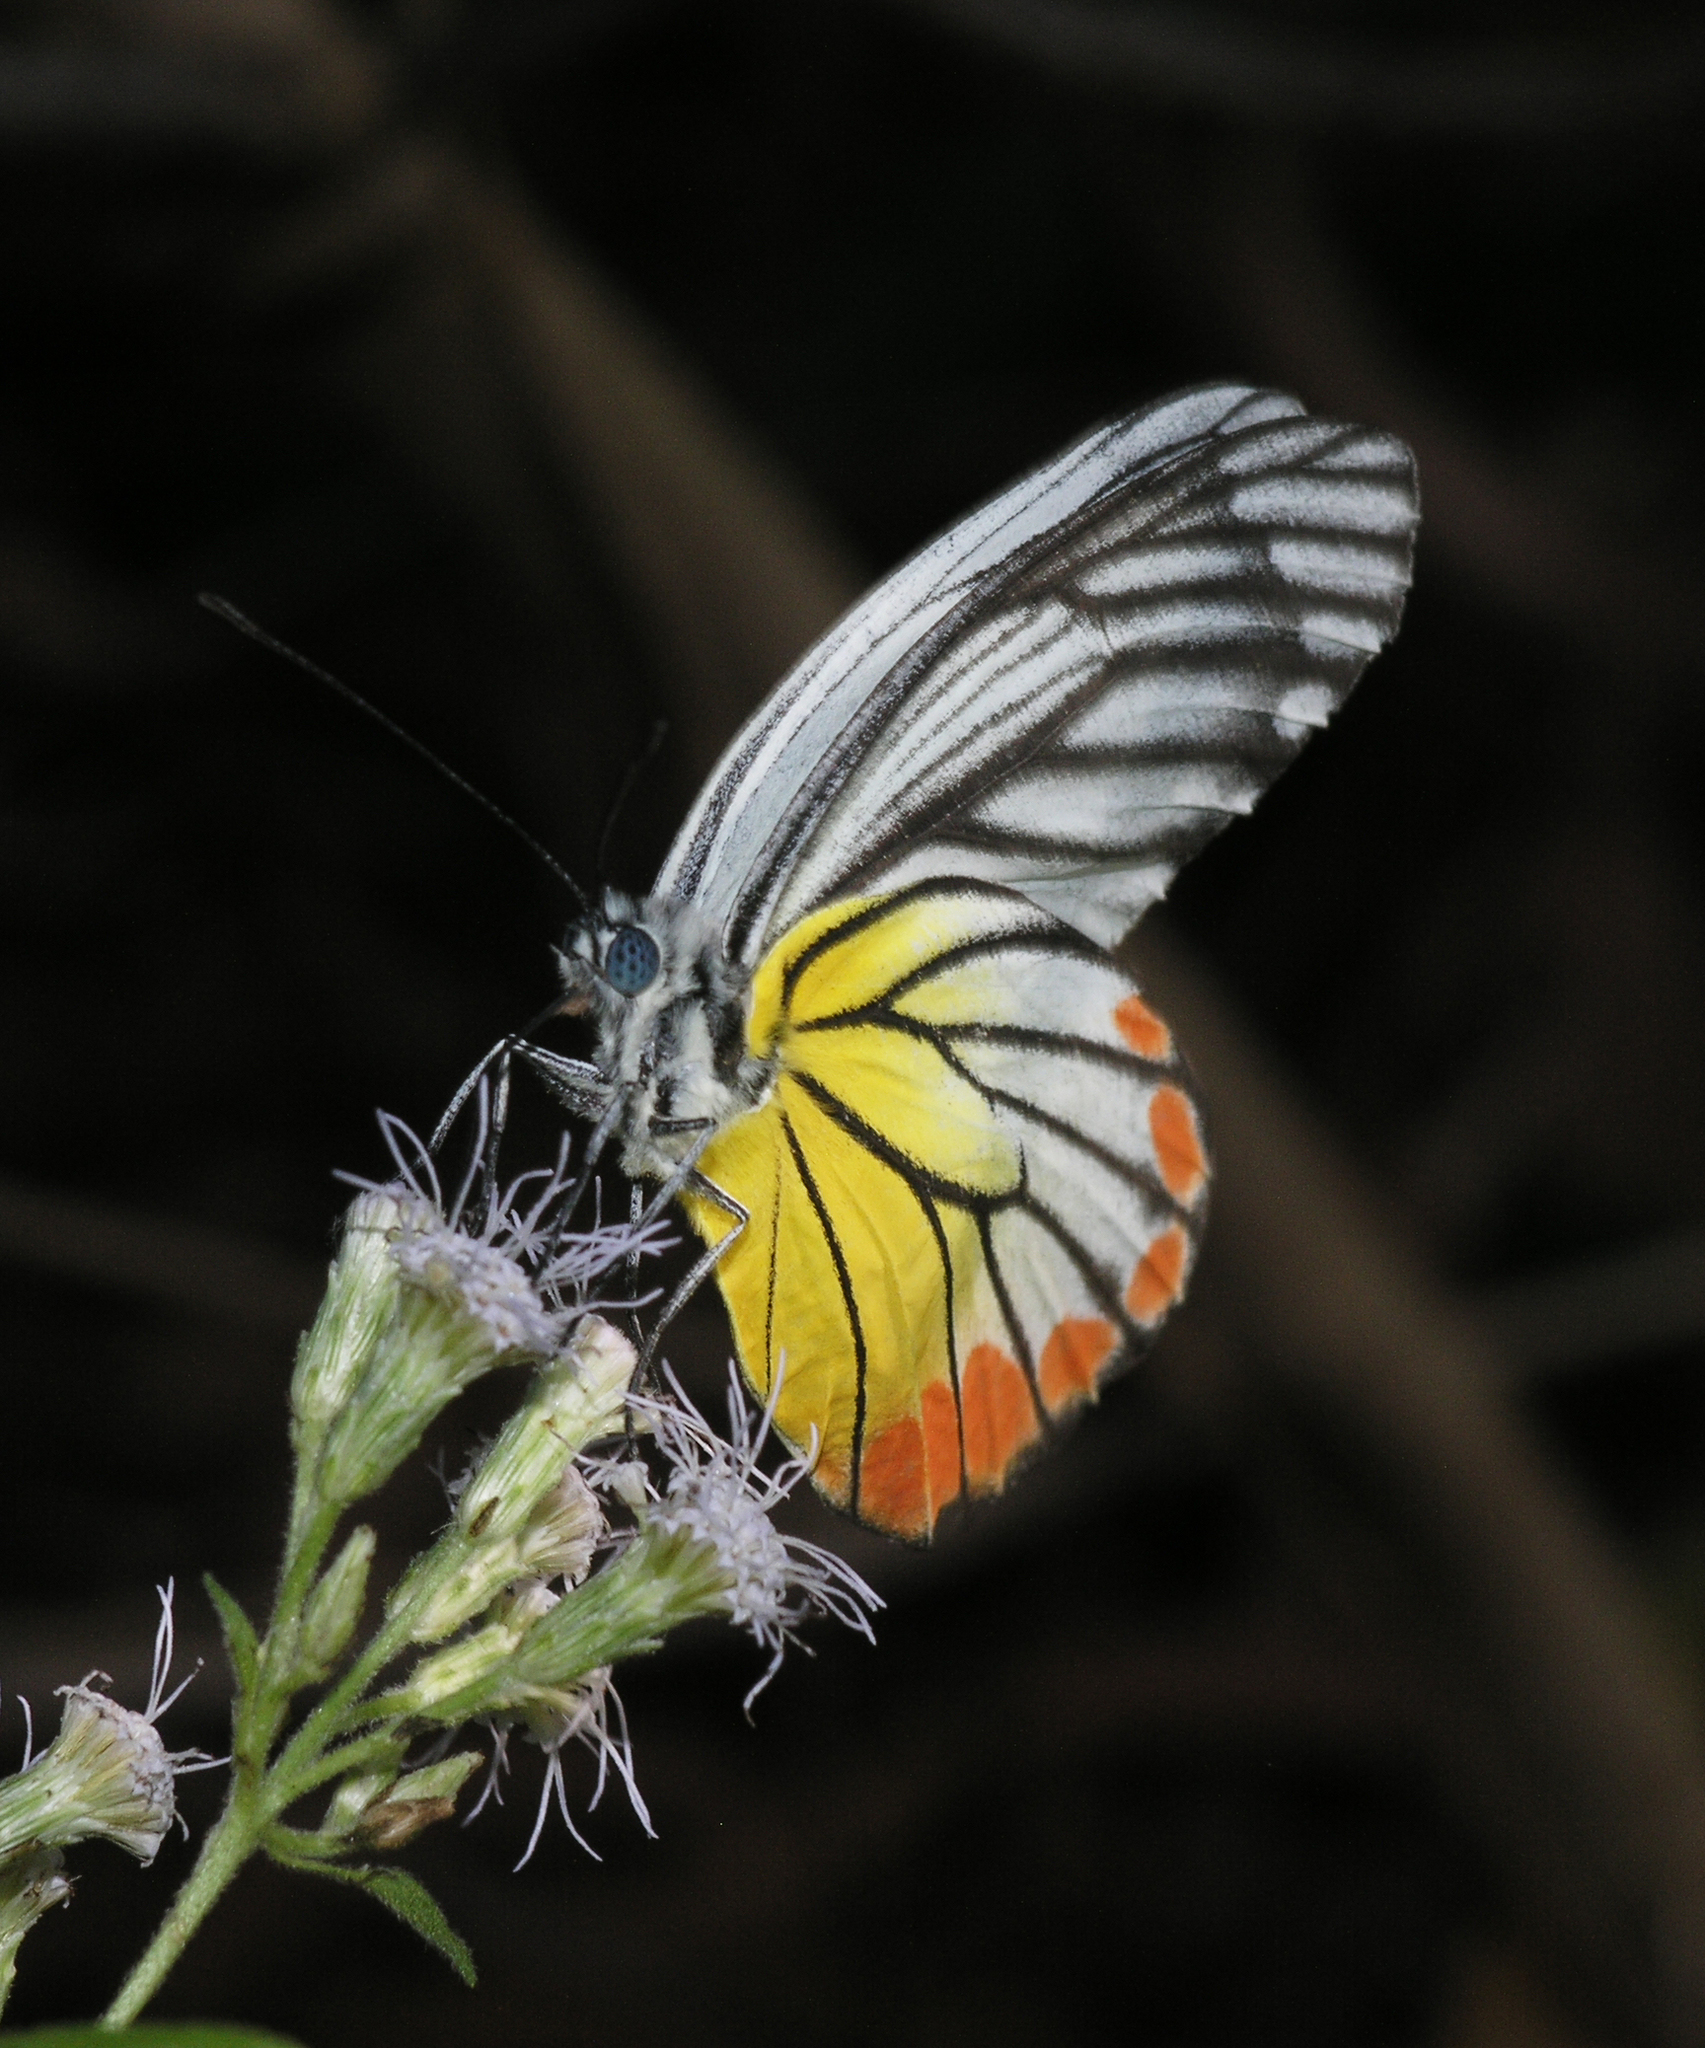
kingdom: Animalia
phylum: Arthropoda
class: Insecta
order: Lepidoptera
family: Pieridae
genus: Delias
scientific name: Delias hyparete
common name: Painted jezebel
